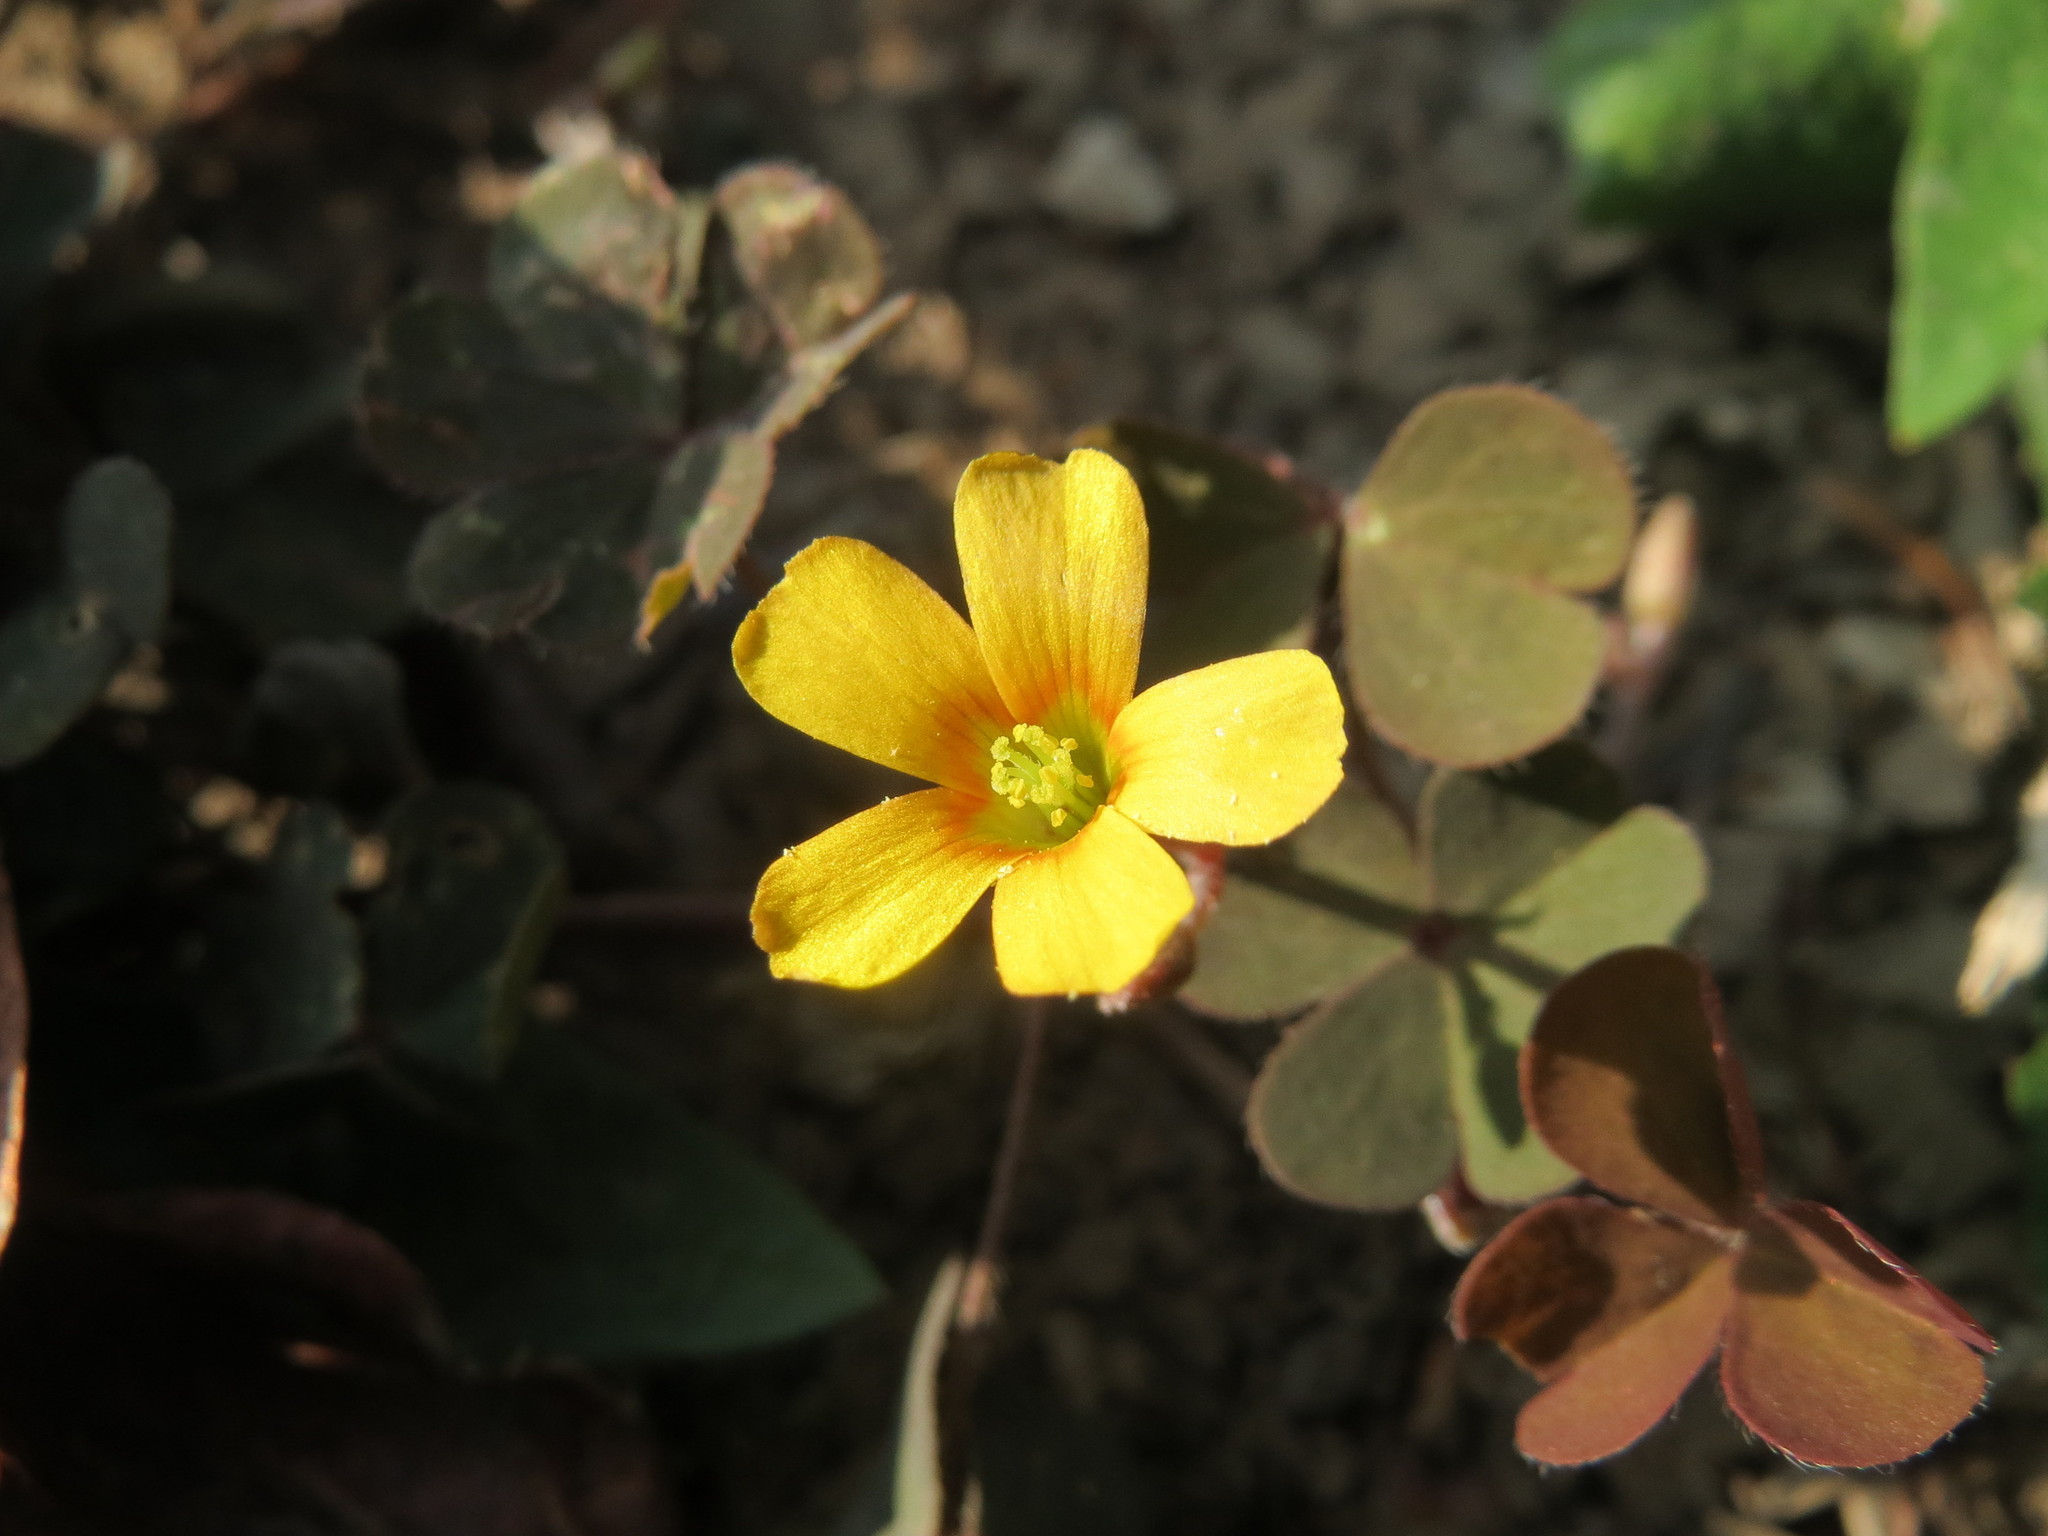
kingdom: Plantae
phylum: Tracheophyta
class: Magnoliopsida
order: Oxalidales
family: Oxalidaceae
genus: Oxalis
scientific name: Oxalis corniculata
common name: Procumbent yellow-sorrel
